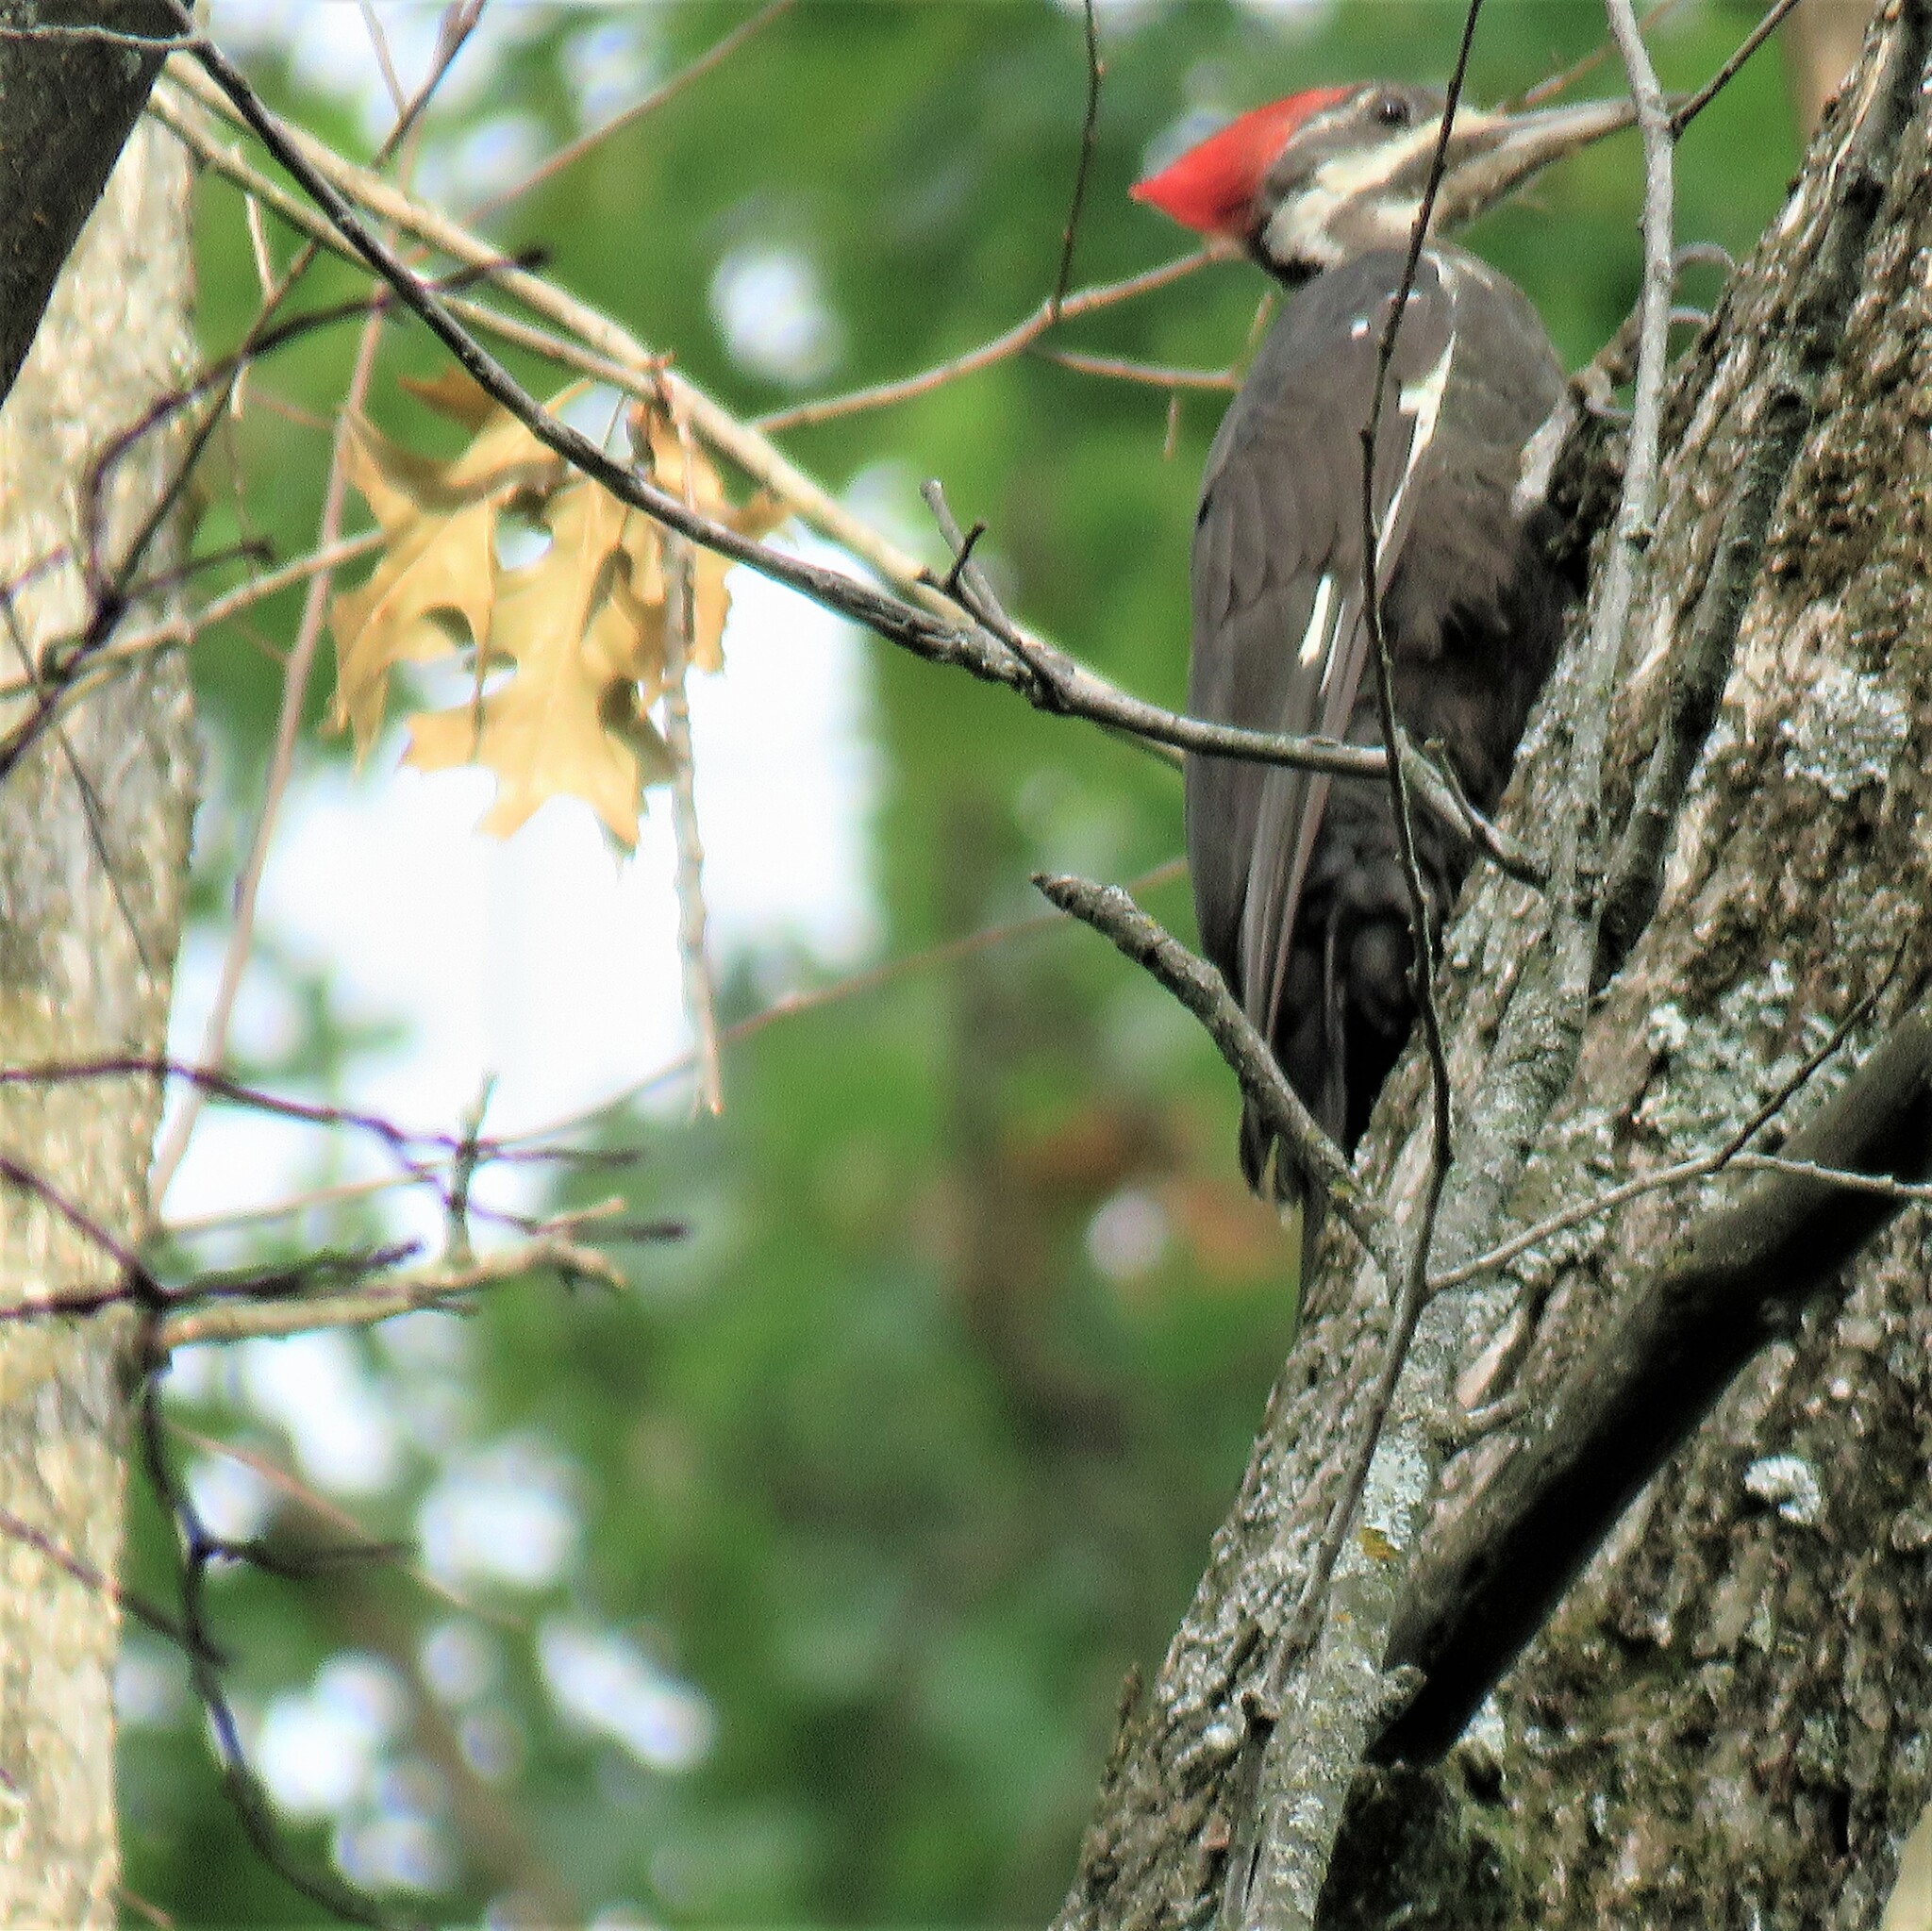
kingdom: Animalia
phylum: Chordata
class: Aves
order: Piciformes
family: Picidae
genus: Dryocopus
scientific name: Dryocopus pileatus
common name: Pileated woodpecker
